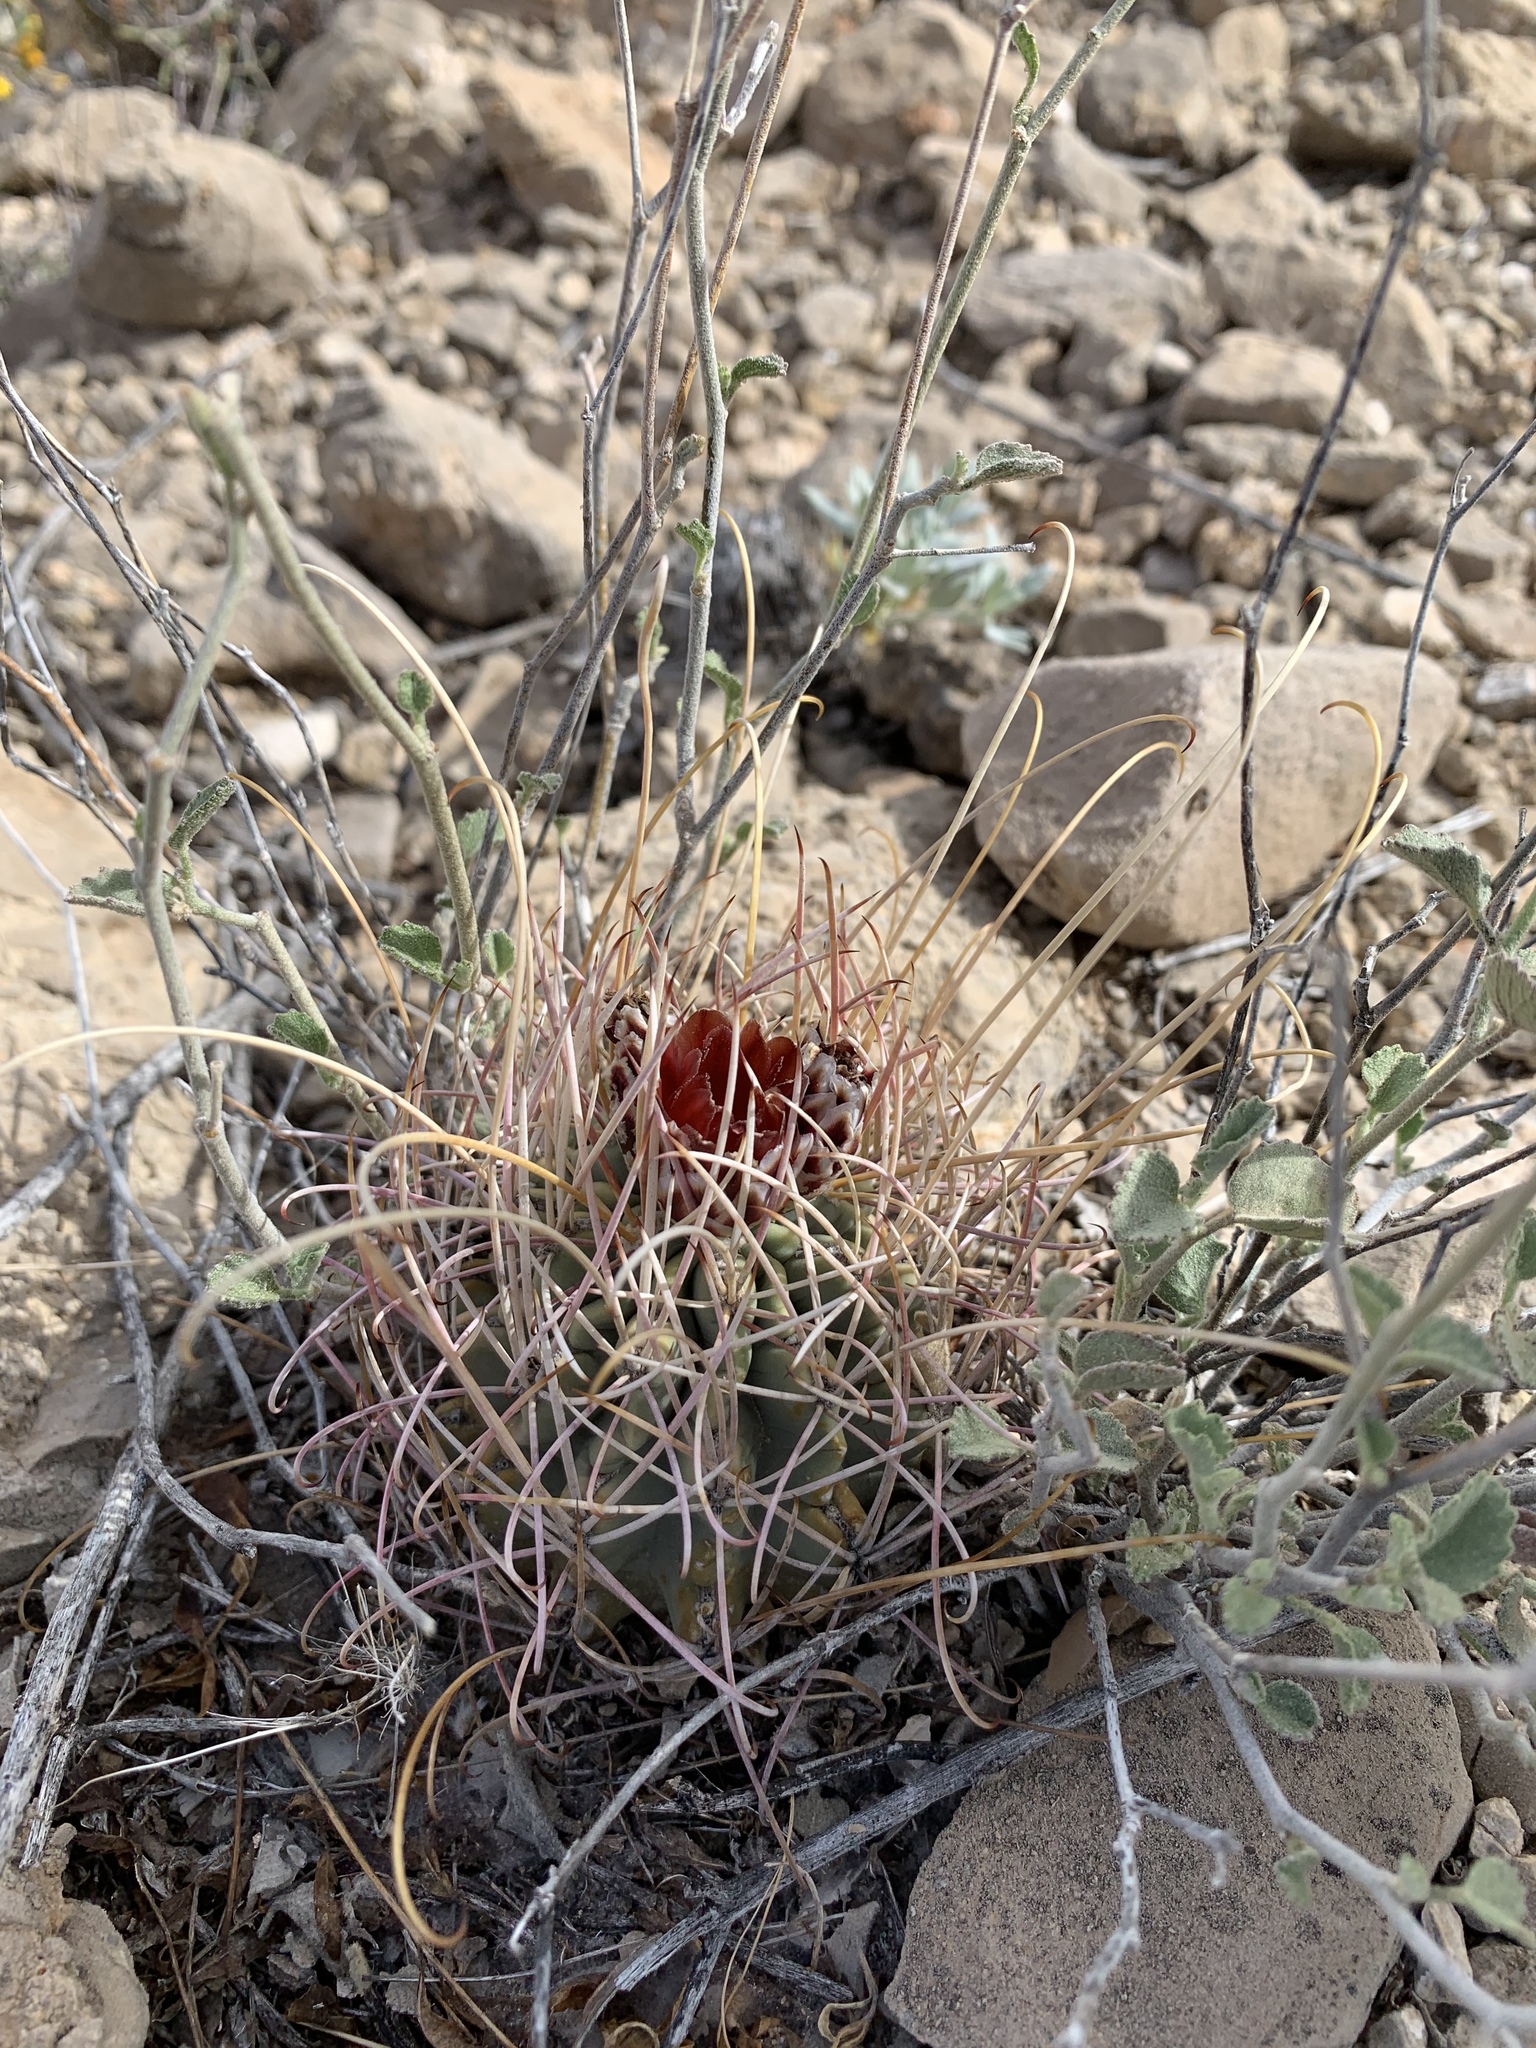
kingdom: Plantae
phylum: Tracheophyta
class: Magnoliopsida
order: Caryophyllales
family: Cactaceae
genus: Ferocactus
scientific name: Ferocactus uncinatus
